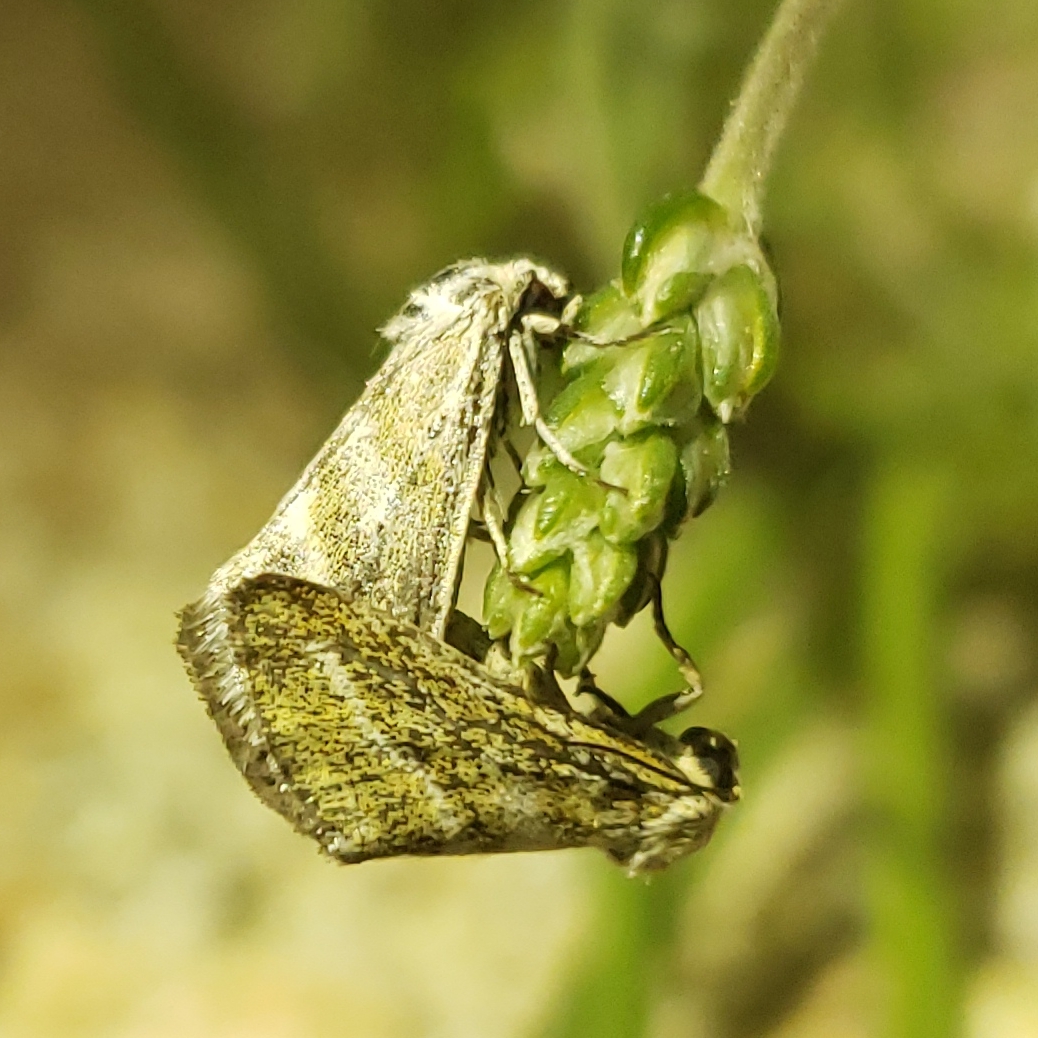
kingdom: Animalia
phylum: Arthropoda
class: Insecta
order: Lepidoptera
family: Noctuidae
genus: Lineostriastiria
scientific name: Lineostriastiria hutsoni
